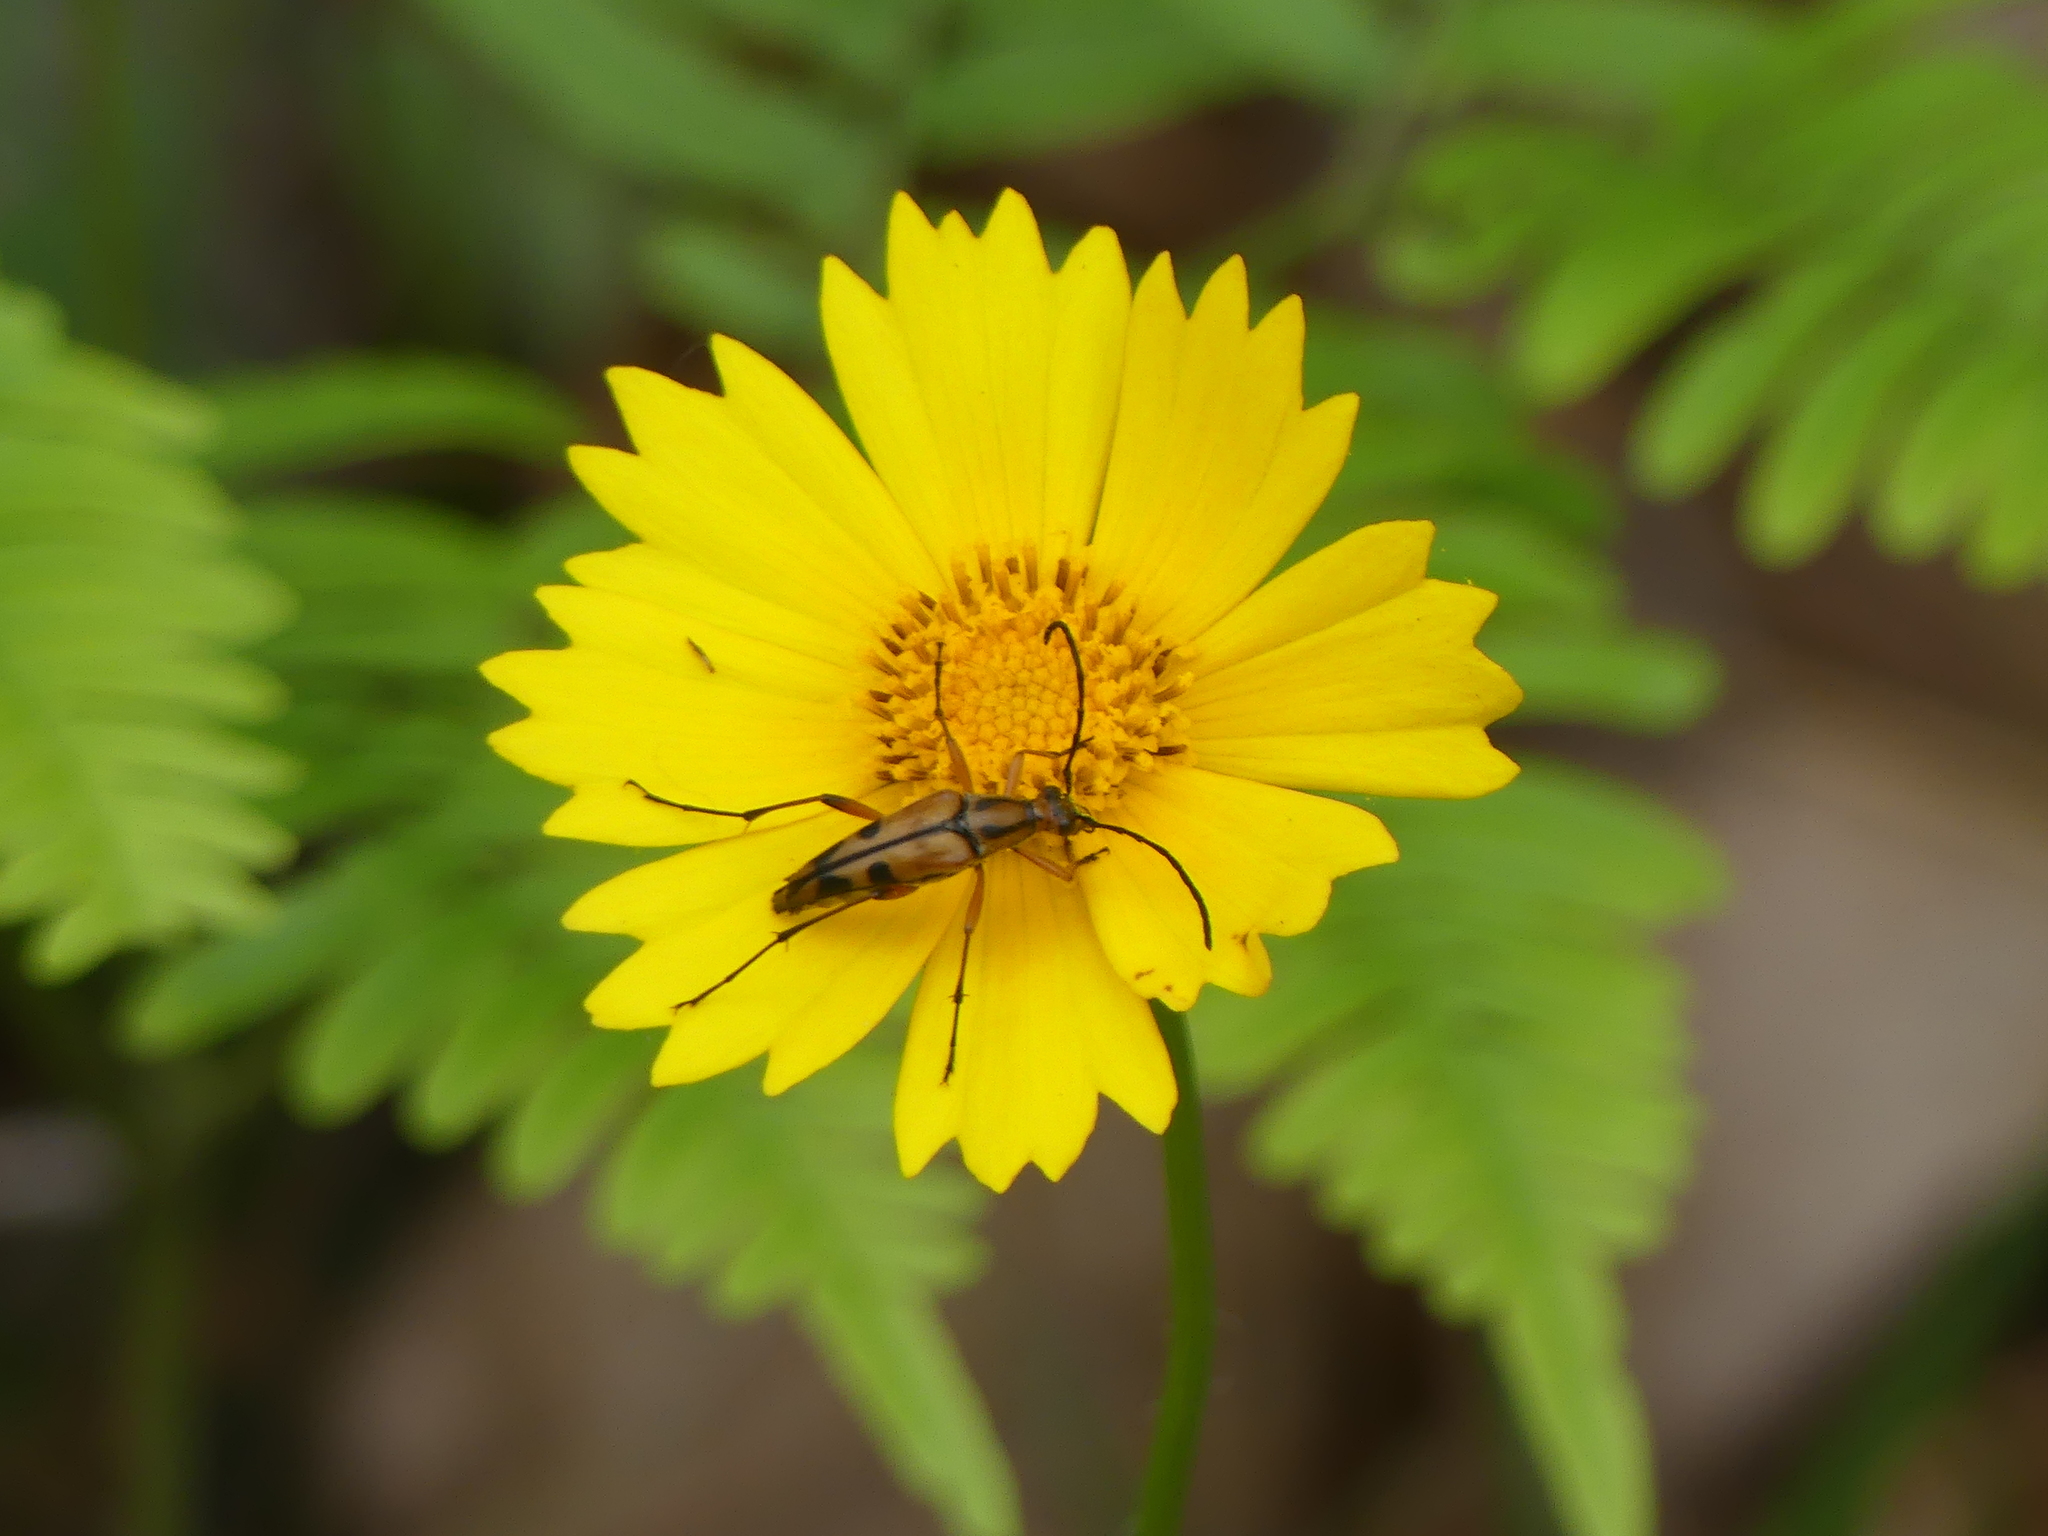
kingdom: Animalia
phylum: Arthropoda
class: Insecta
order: Coleoptera
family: Cerambycidae
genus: Strangalia
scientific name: Strangalia famelica
